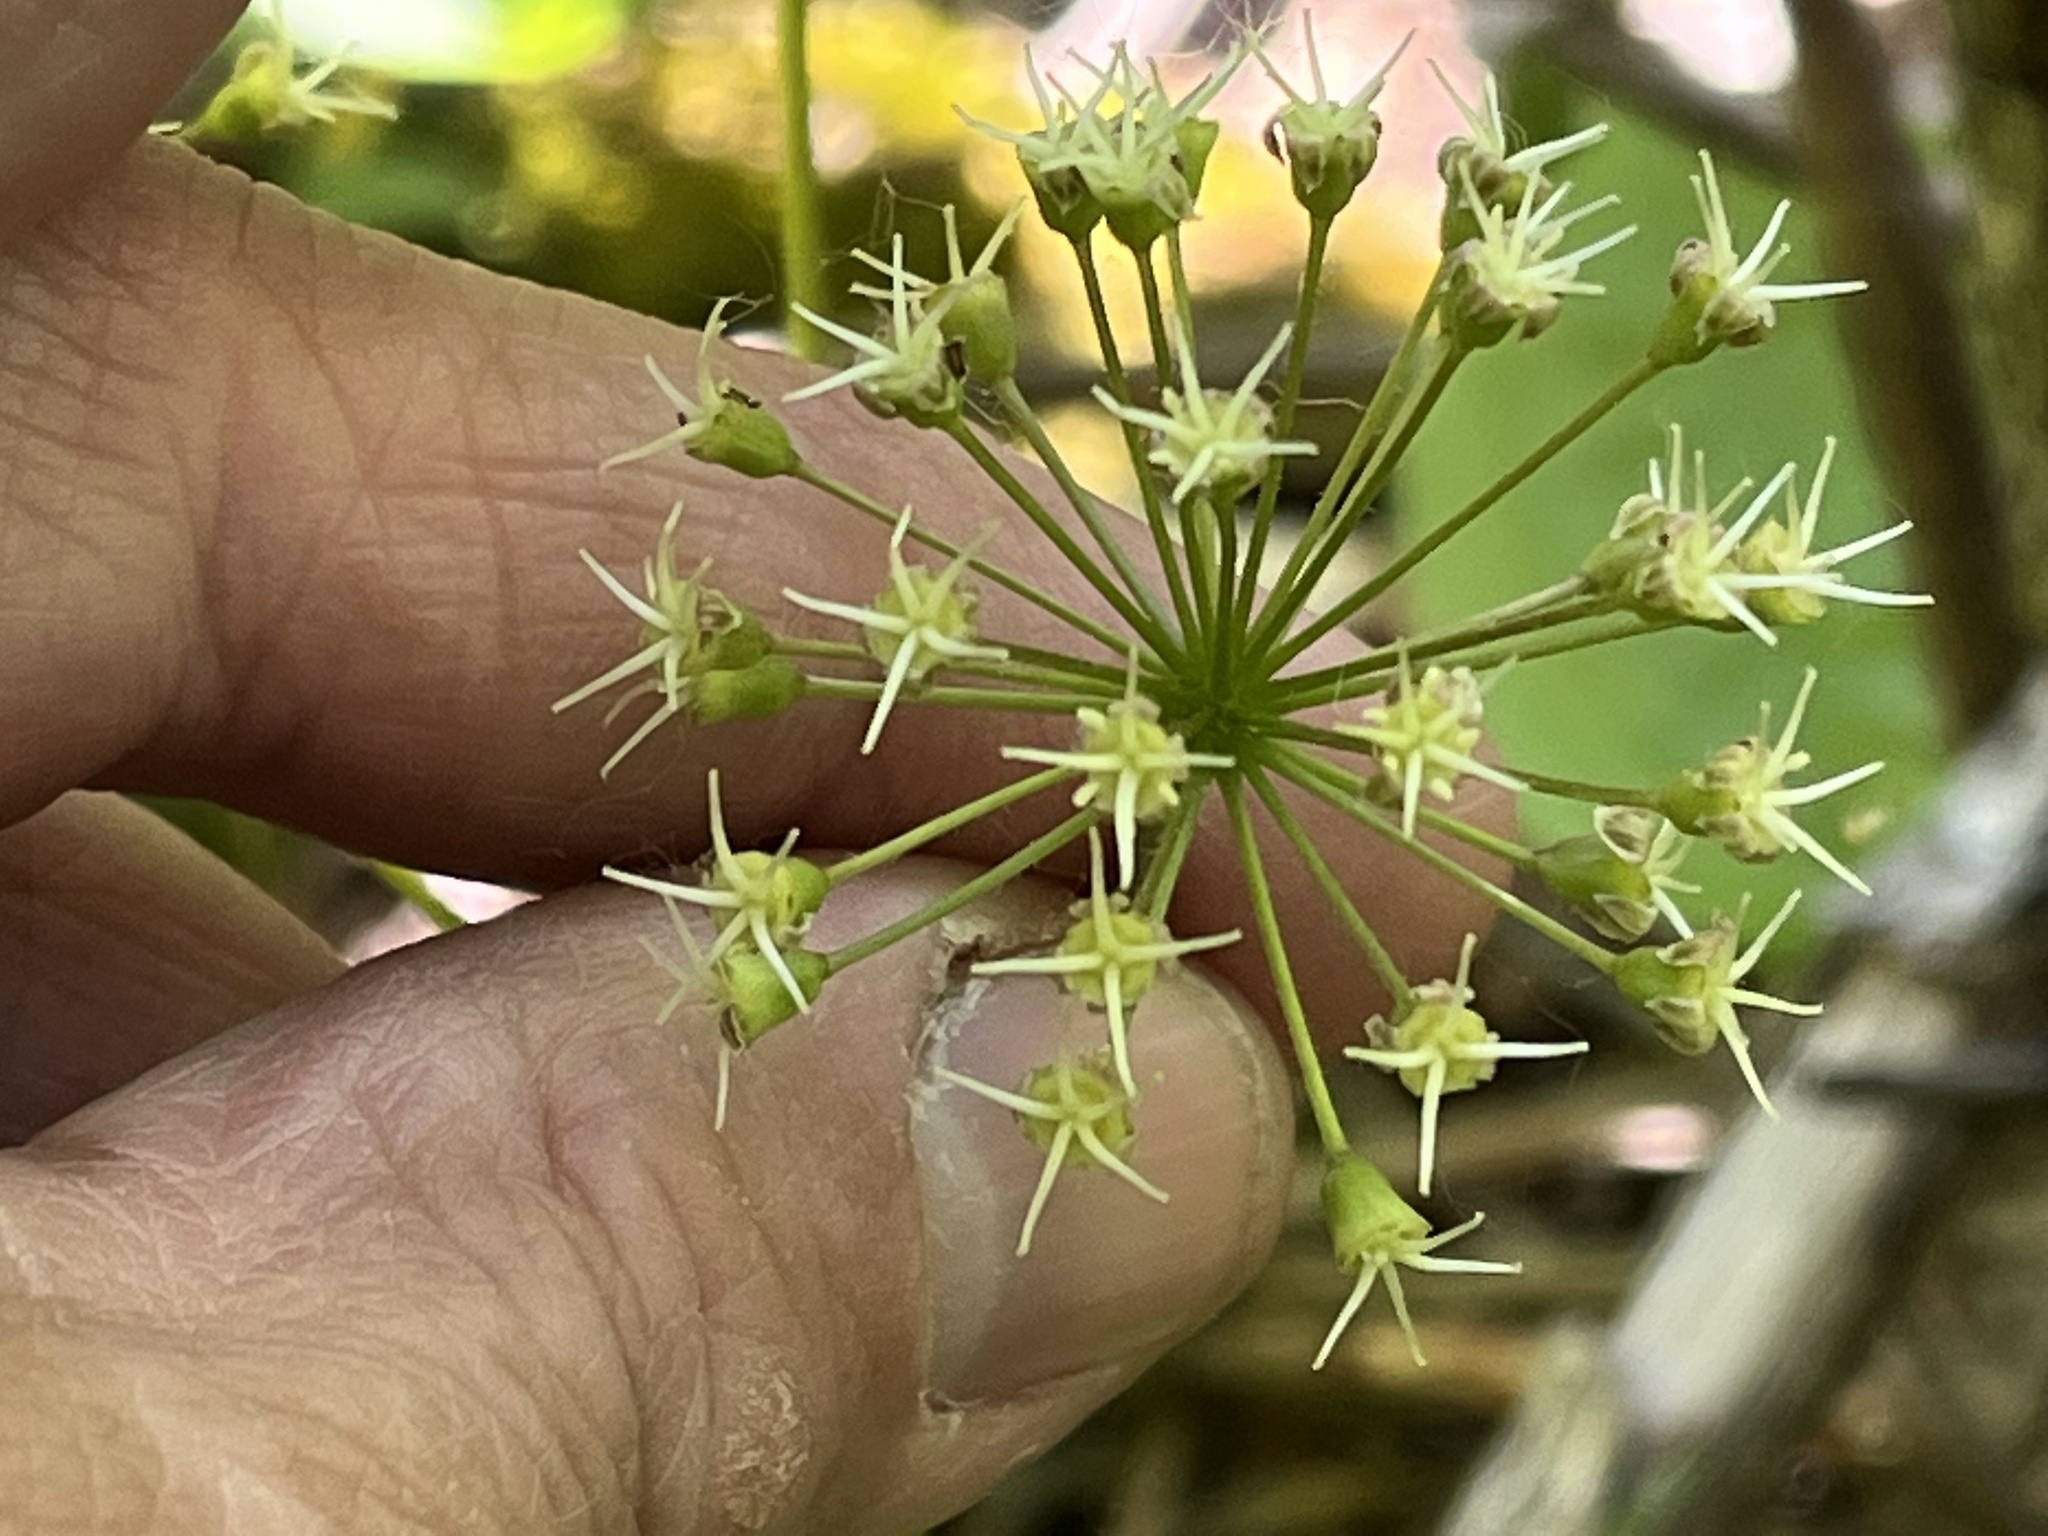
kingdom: Plantae
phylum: Tracheophyta
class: Magnoliopsida
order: Apiales
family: Araliaceae
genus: Aralia
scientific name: Aralia nudicaulis
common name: Wild sarsaparilla
